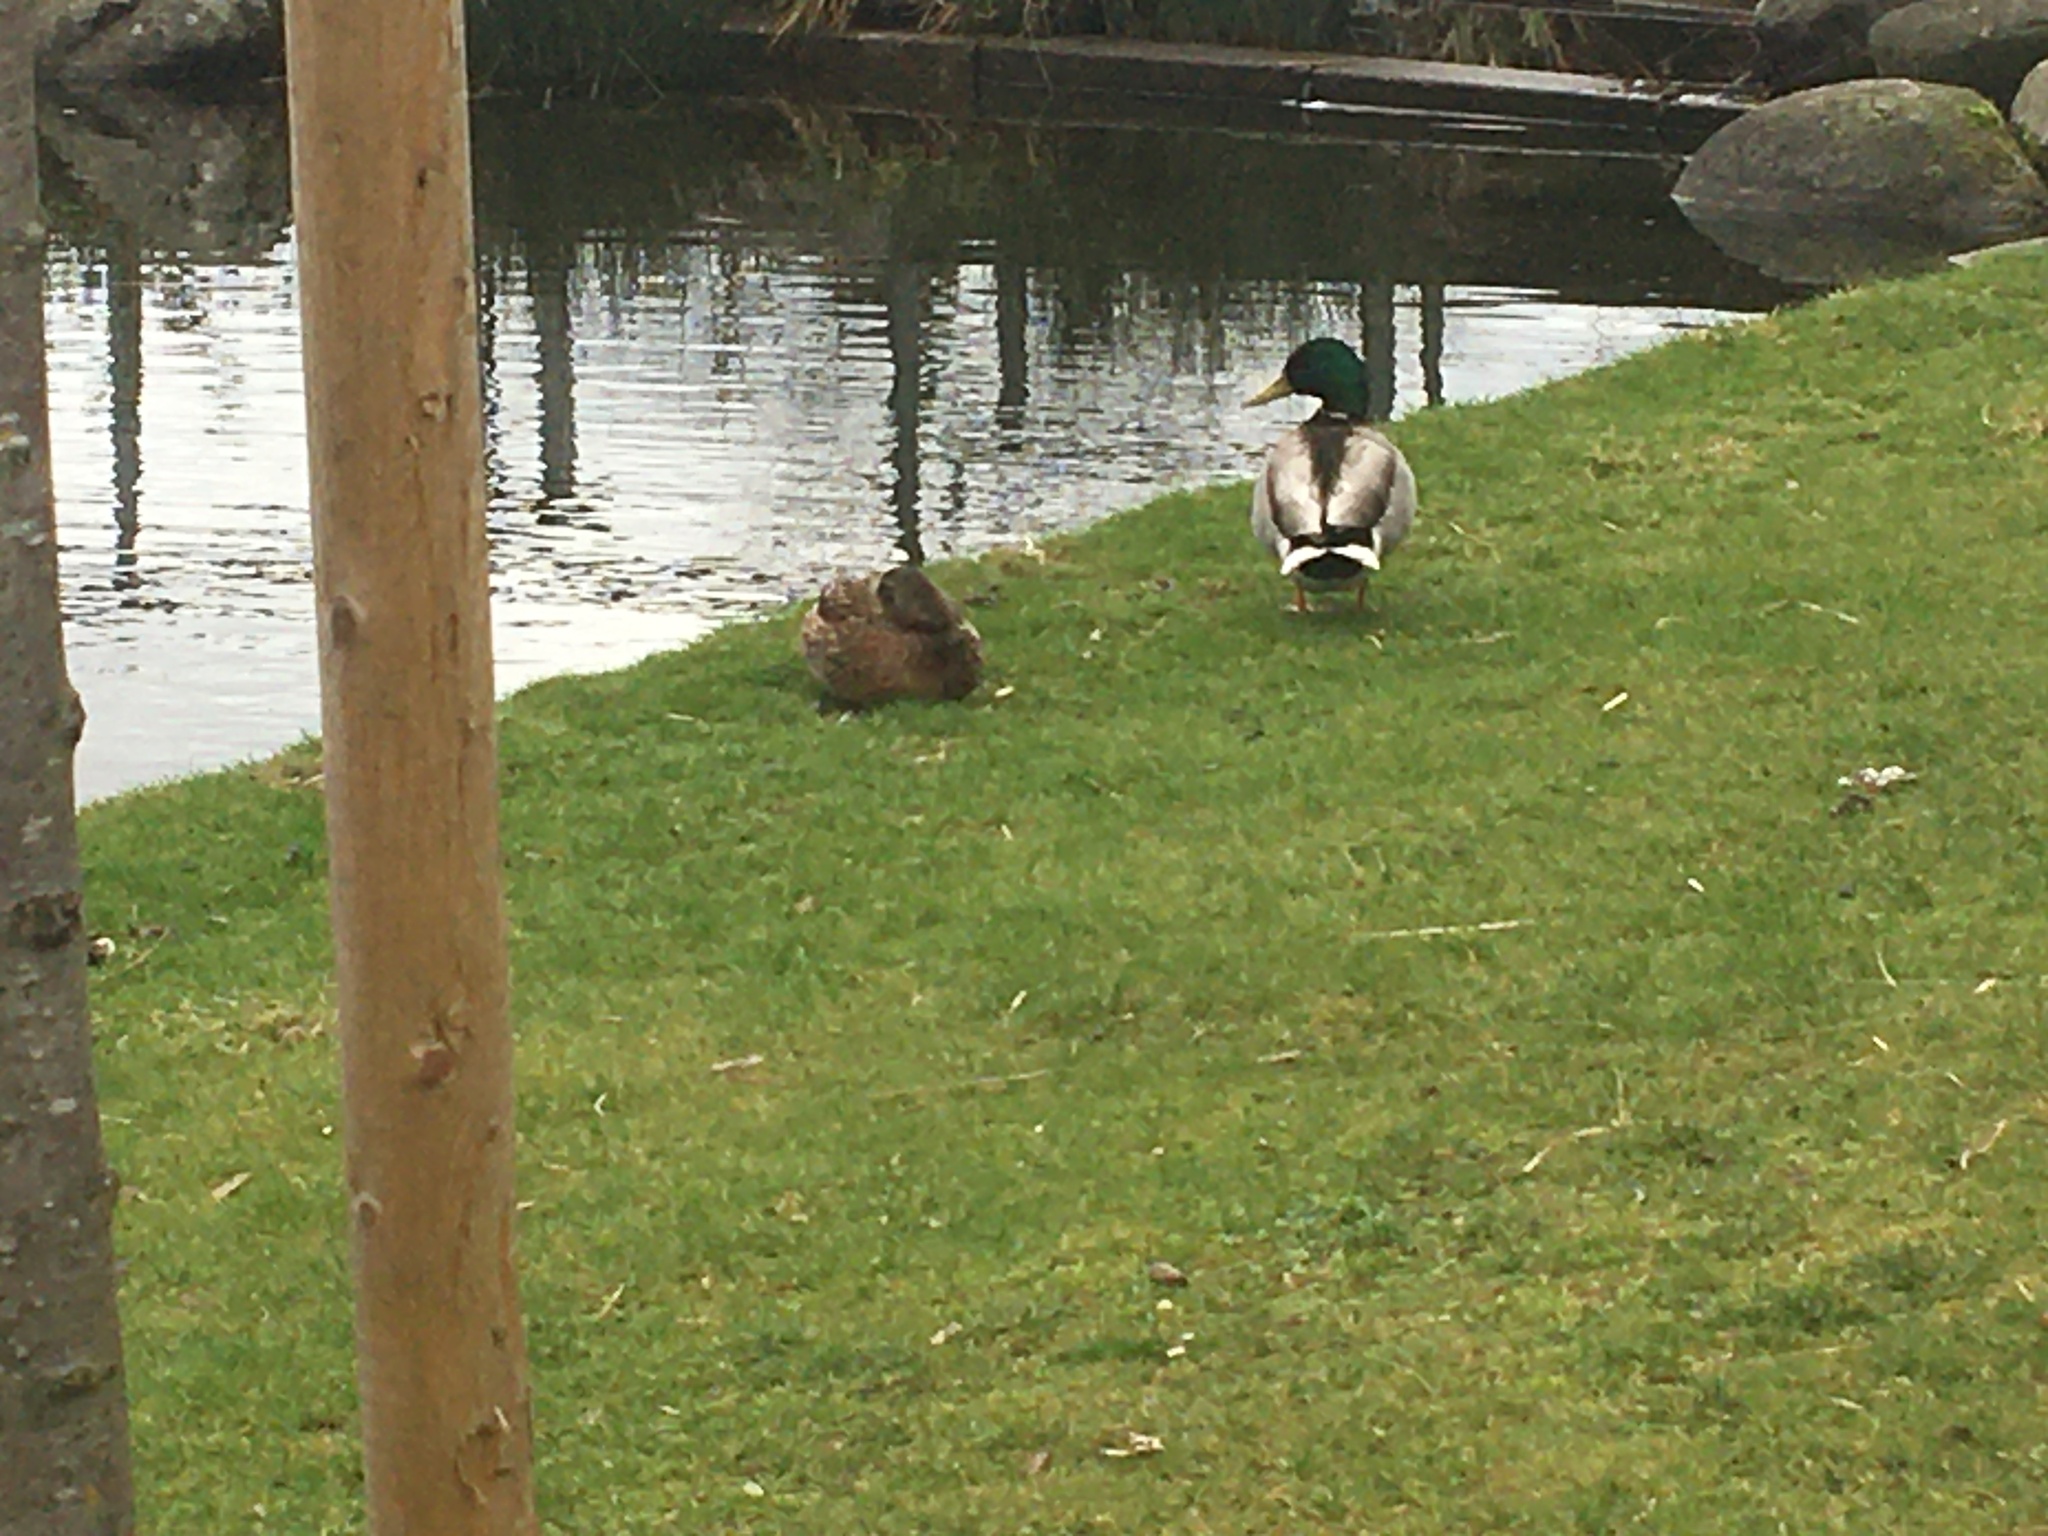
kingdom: Animalia
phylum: Chordata
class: Aves
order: Anseriformes
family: Anatidae
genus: Anas
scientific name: Anas platyrhynchos
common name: Mallard
